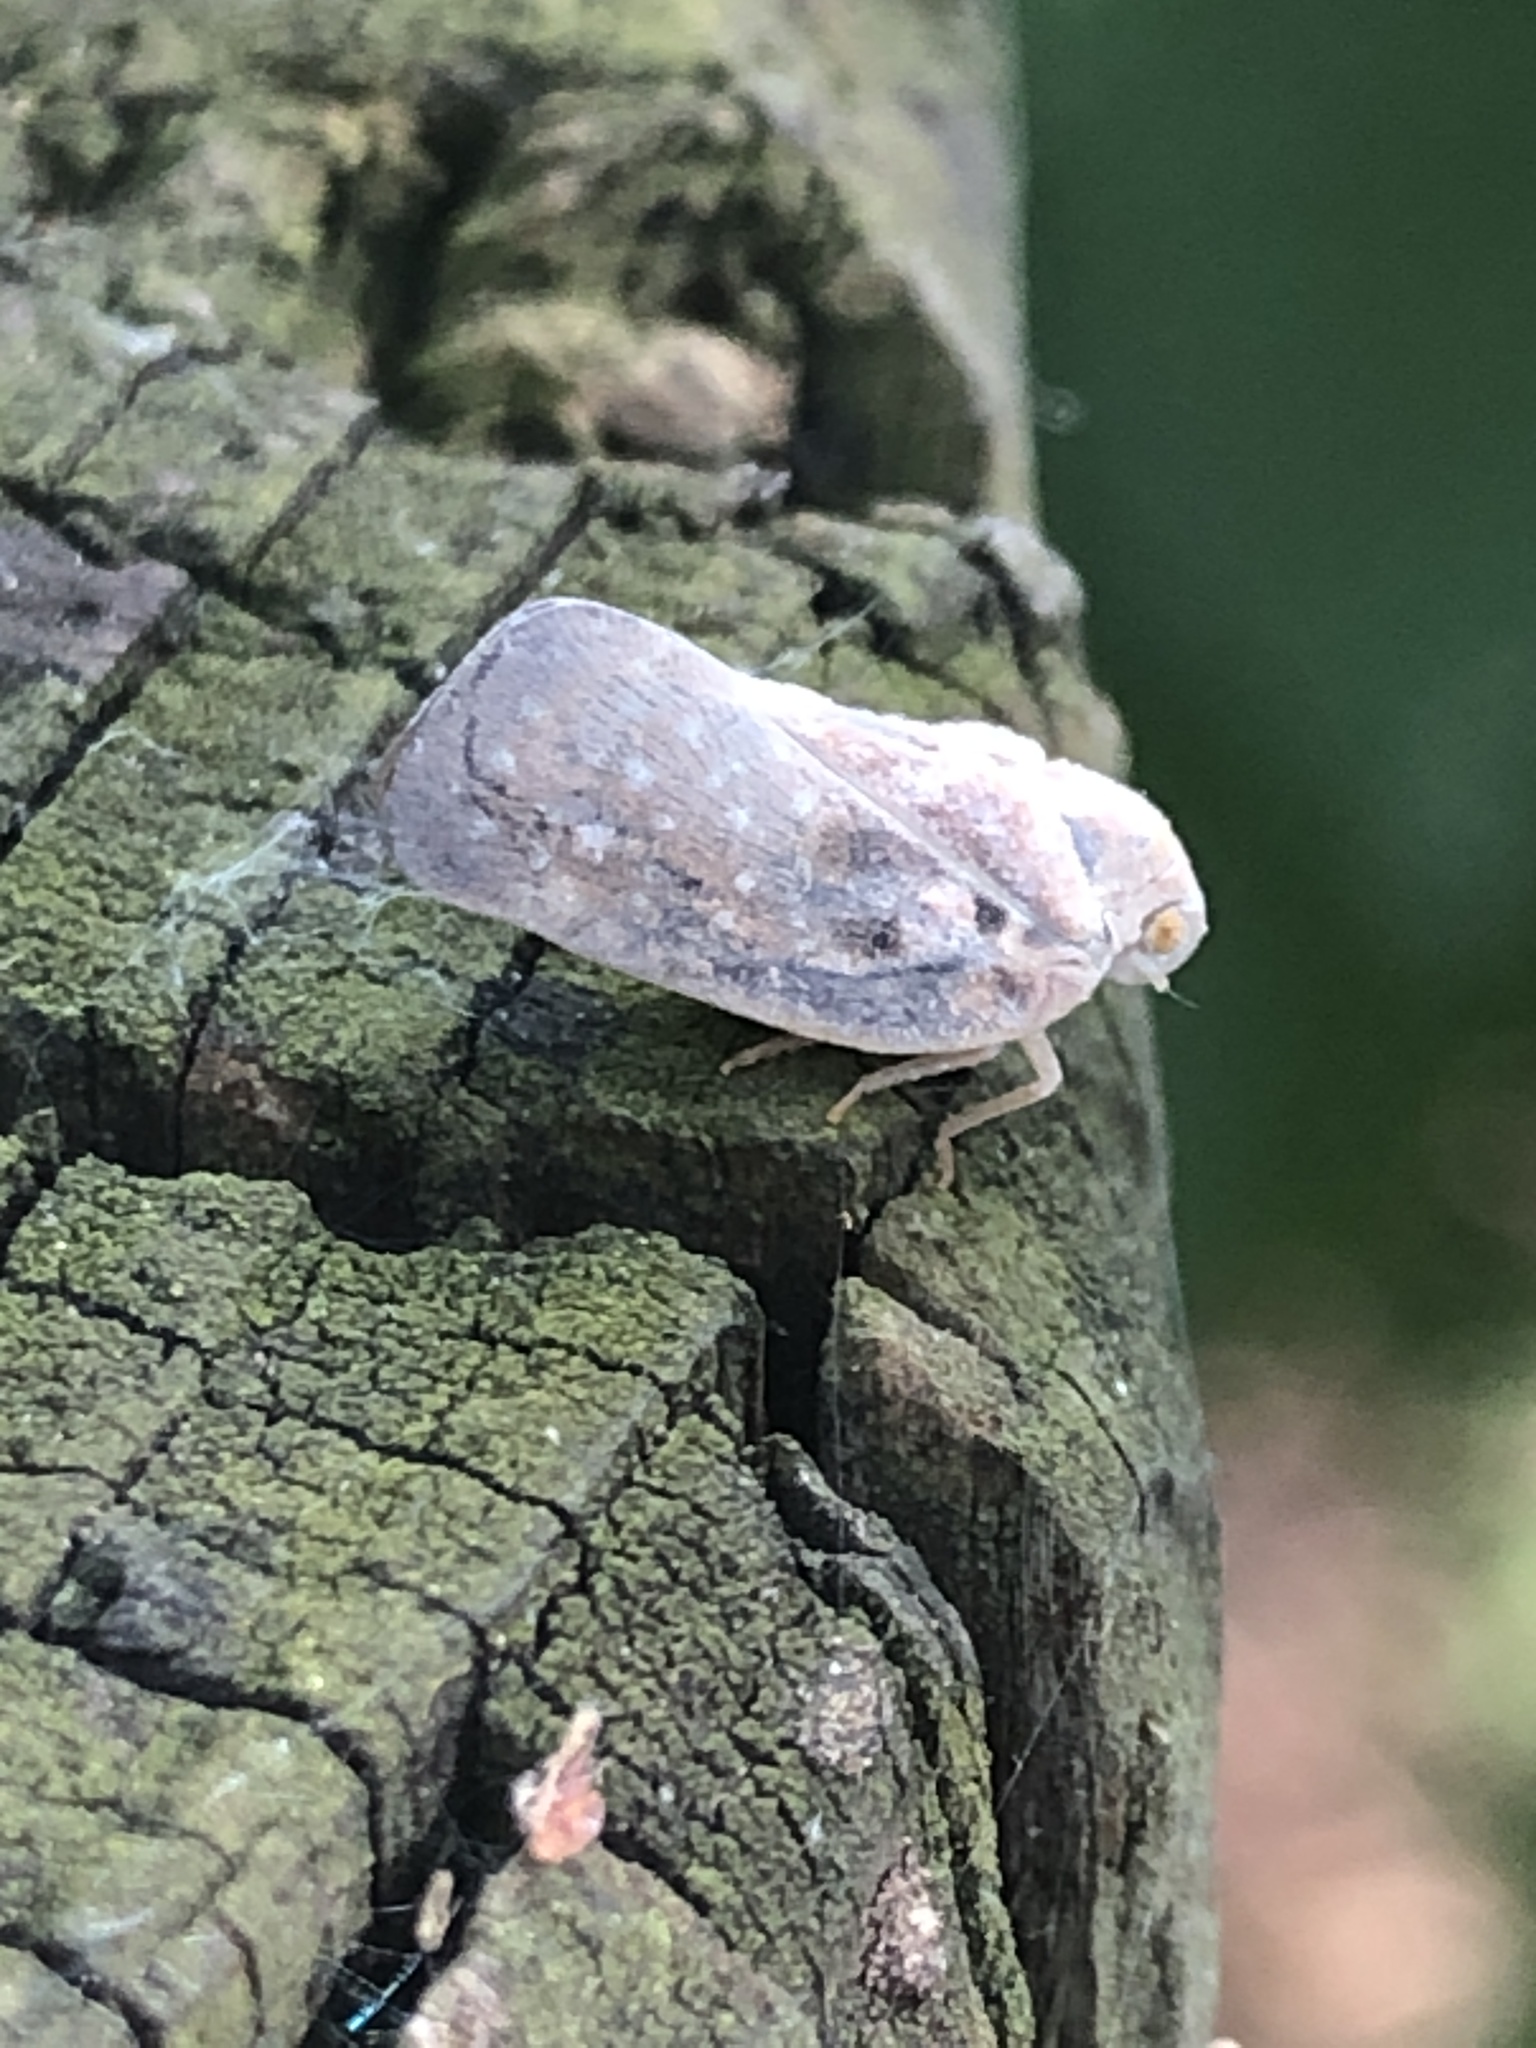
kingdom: Animalia
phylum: Arthropoda
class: Insecta
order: Hemiptera
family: Flatidae
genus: Metcalfa
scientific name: Metcalfa pruinosa
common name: Citrus flatid planthopper
